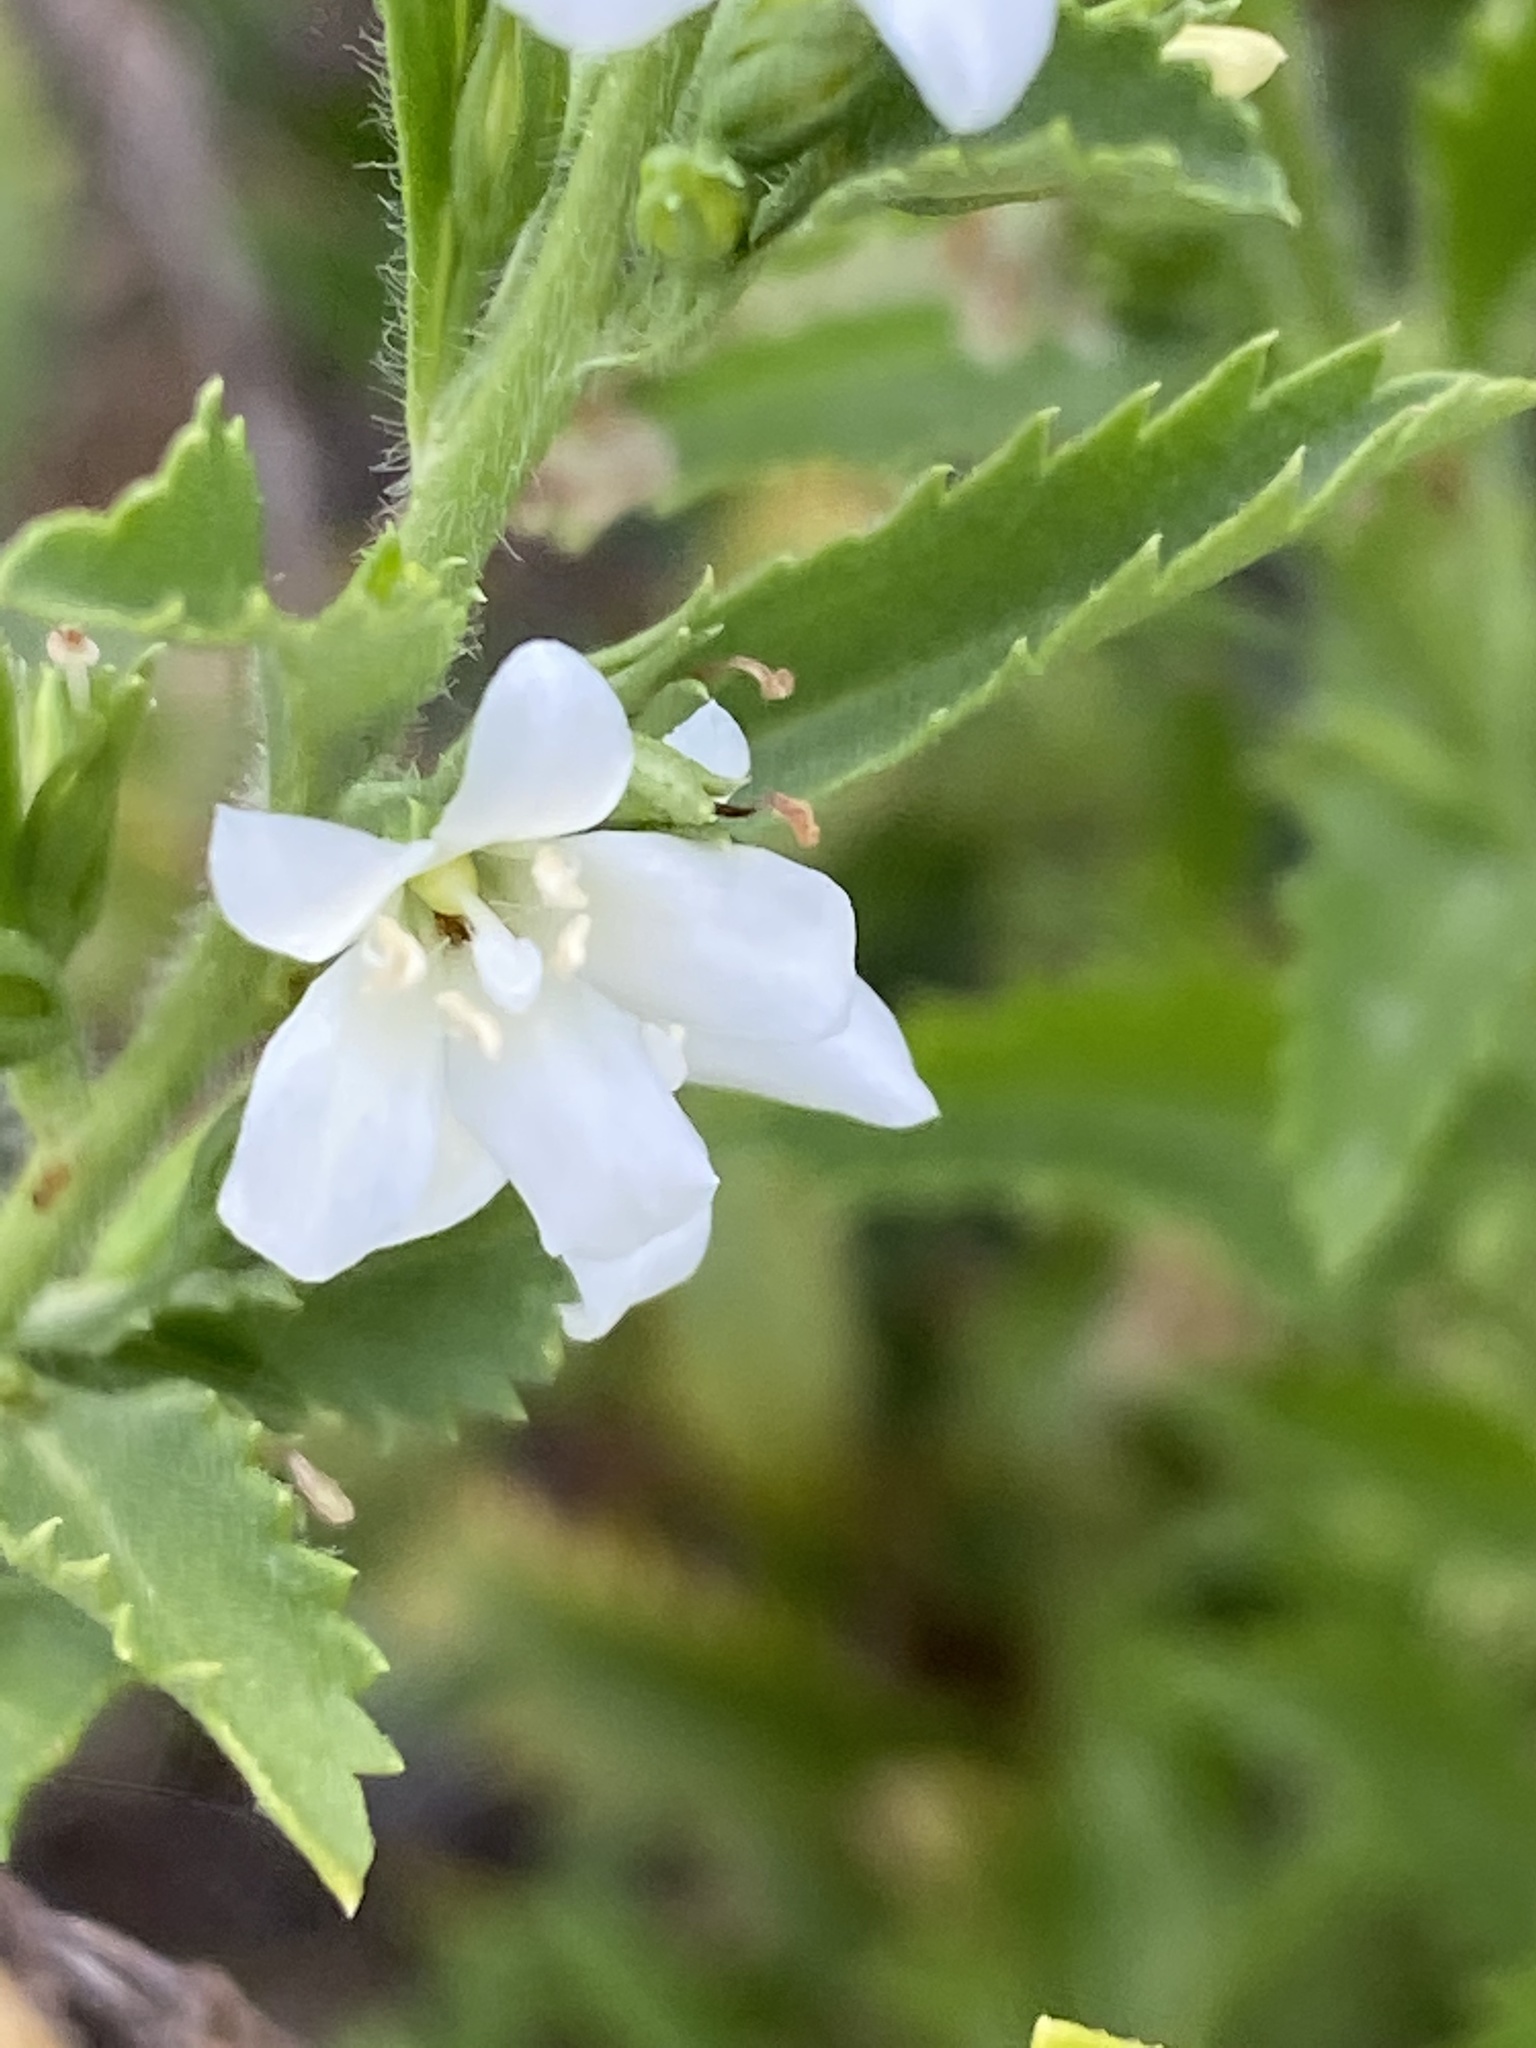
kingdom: Plantae
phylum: Tracheophyta
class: Magnoliopsida
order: Lamiales
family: Scrophulariaceae
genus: Capraria
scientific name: Capraria biflora
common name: Goatweed
